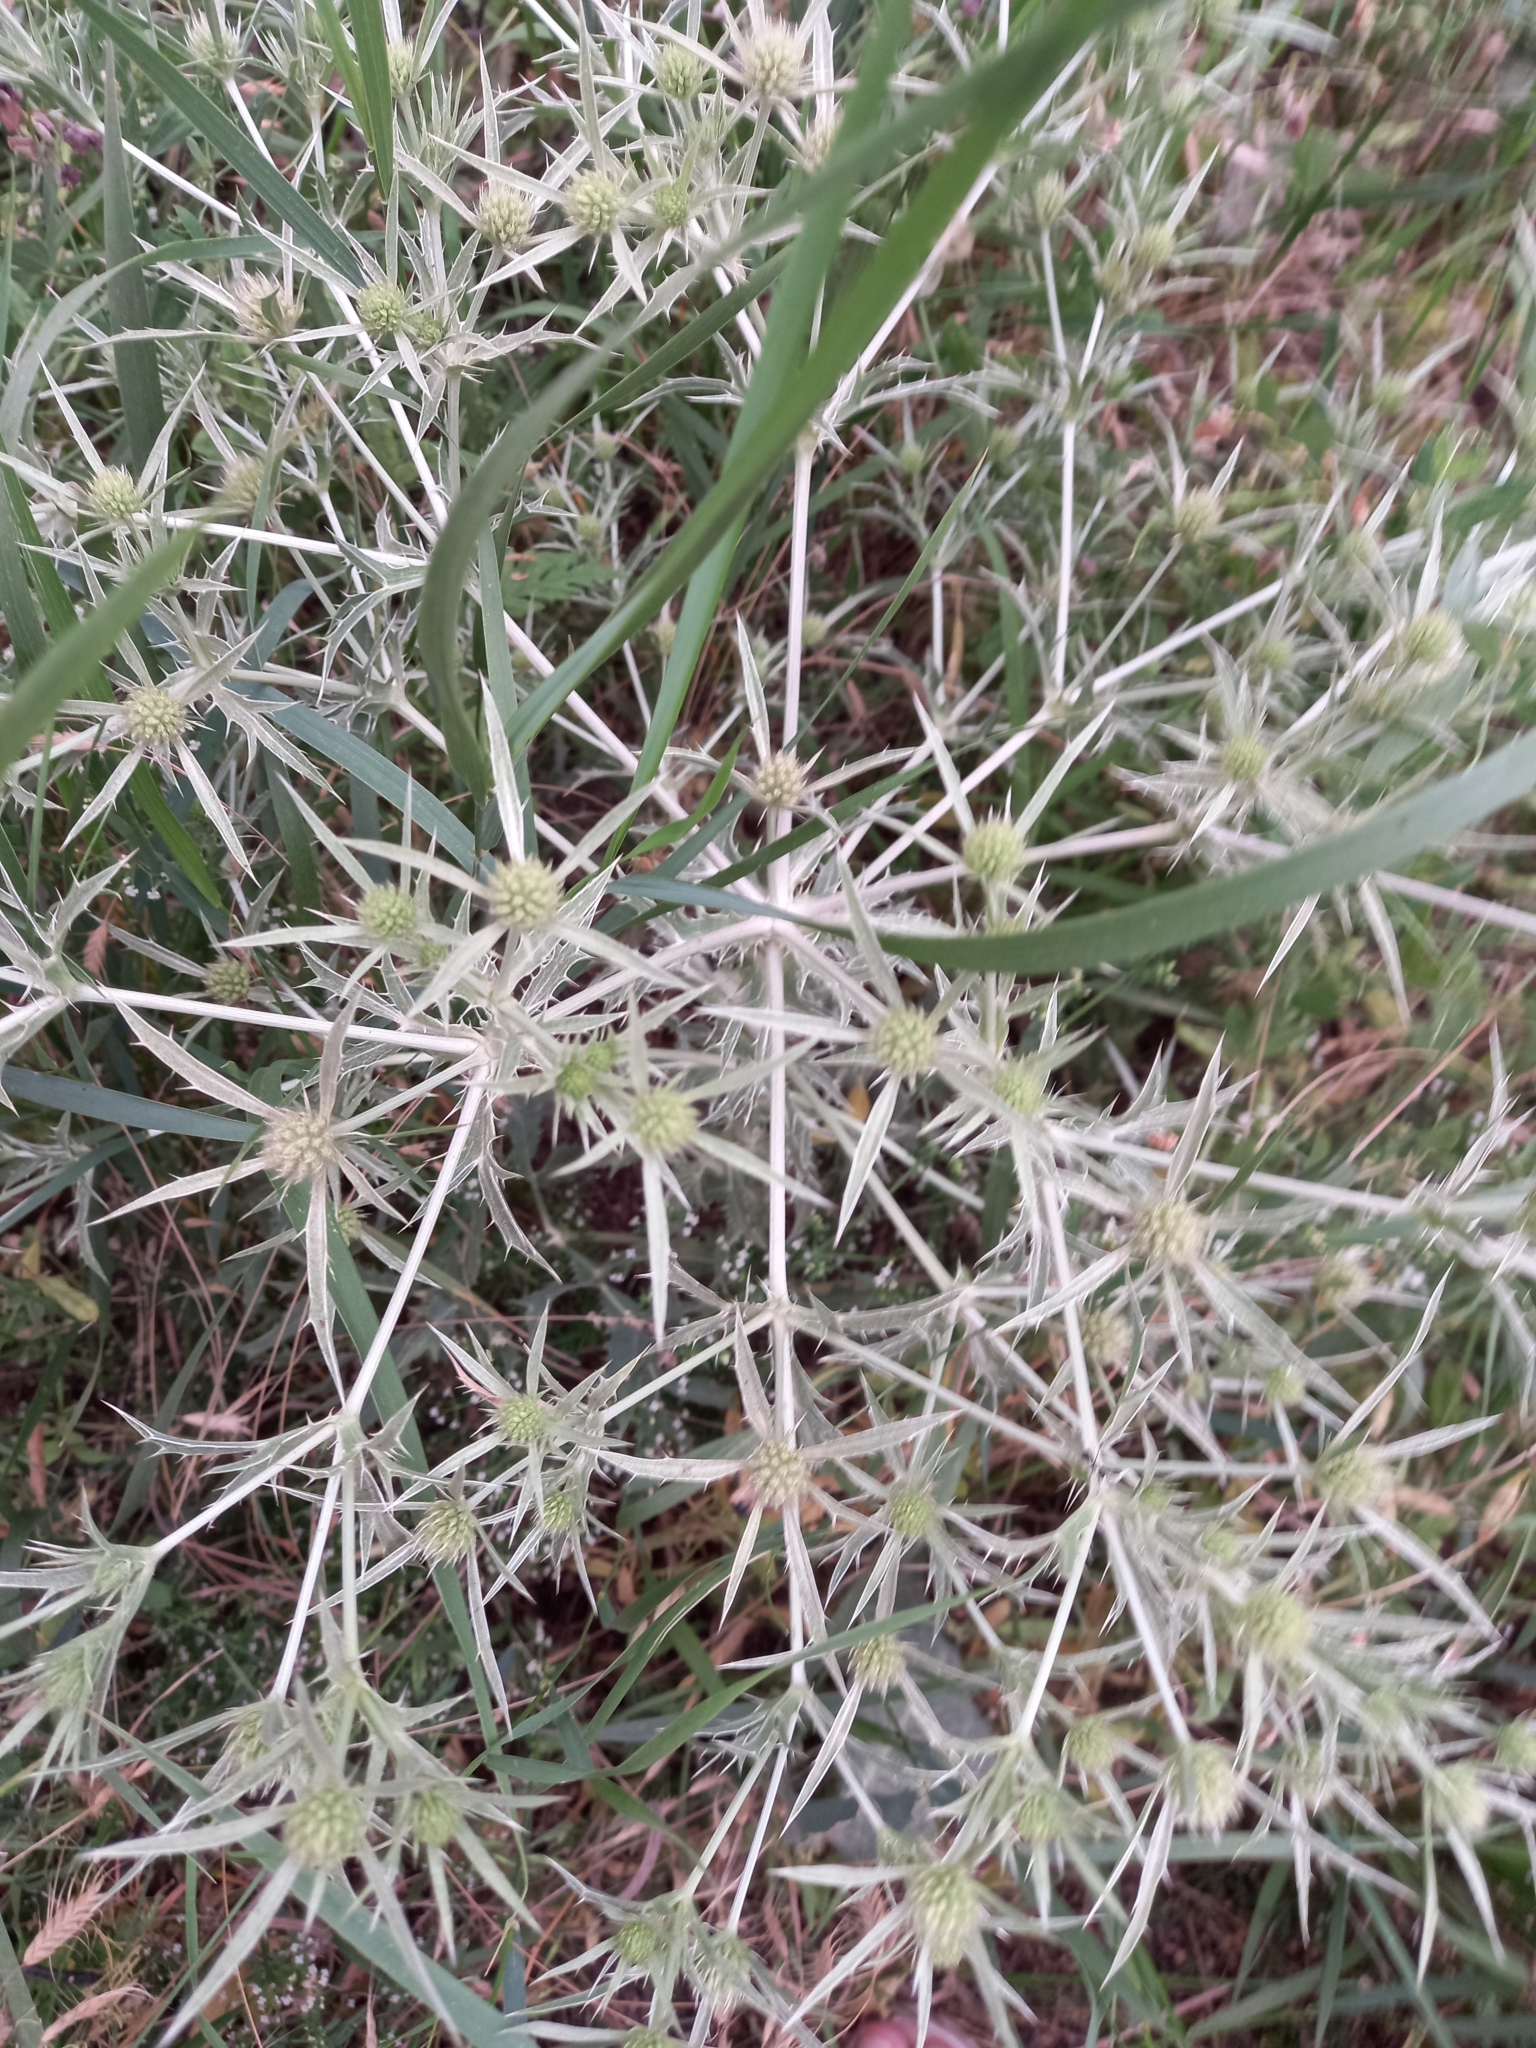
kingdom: Plantae
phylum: Tracheophyta
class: Magnoliopsida
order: Apiales
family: Apiaceae
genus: Eryngium
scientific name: Eryngium campestre
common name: Field eryngo
